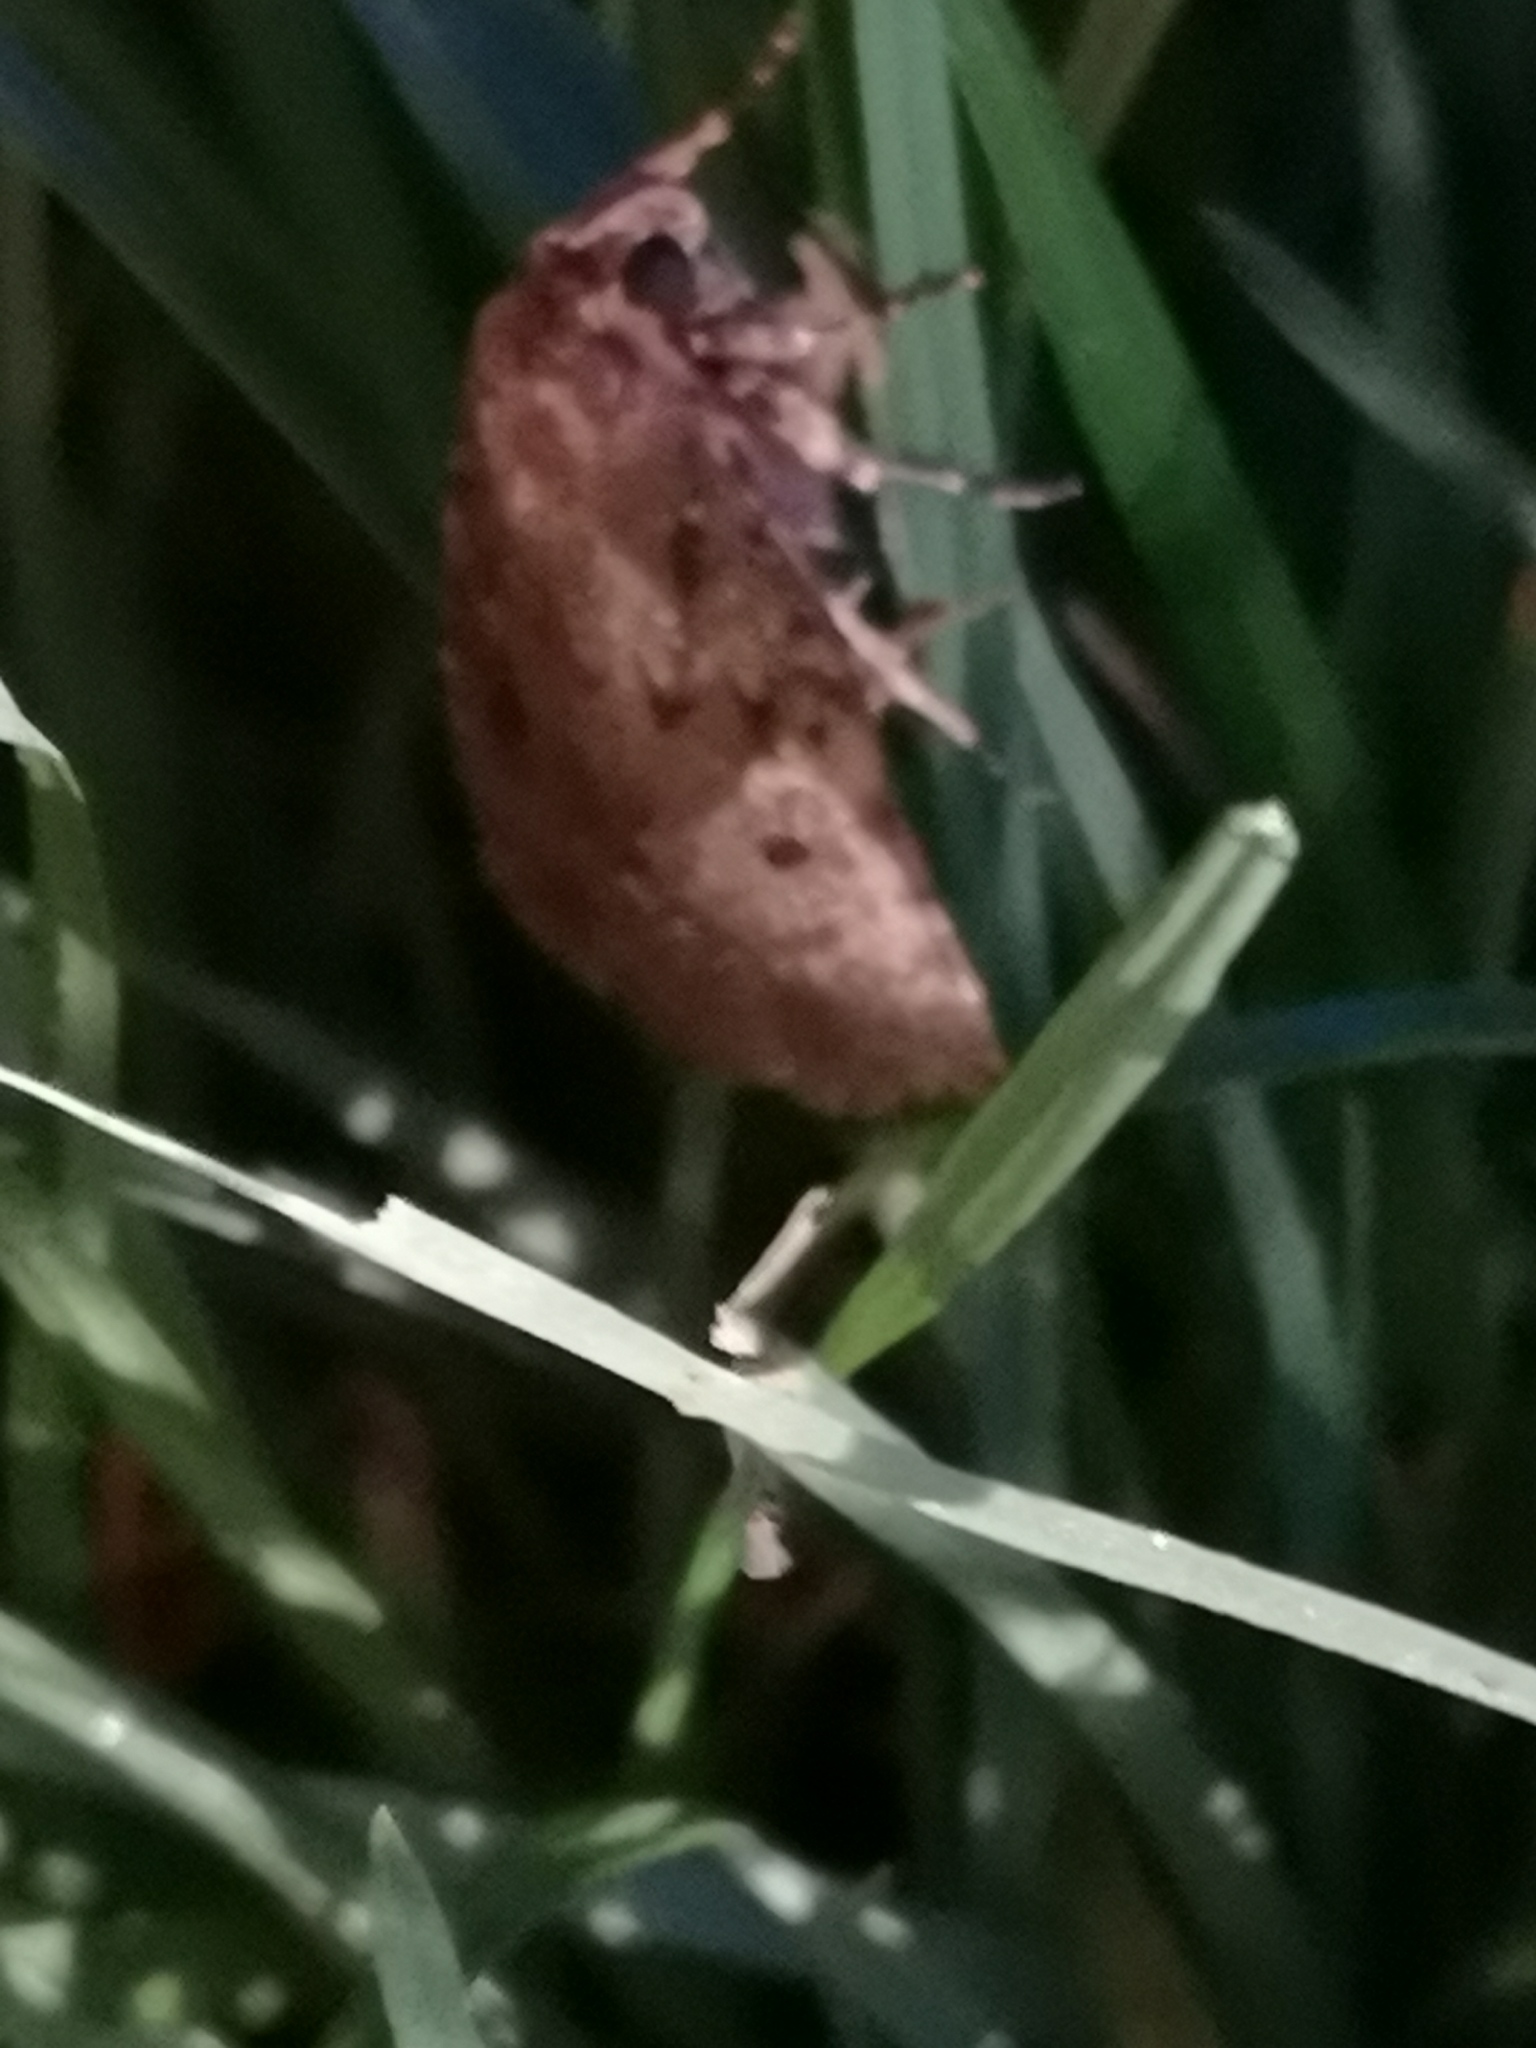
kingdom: Animalia
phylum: Arthropoda
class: Insecta
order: Lepidoptera
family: Noctuidae
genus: Amphipyra
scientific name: Amphipyra
